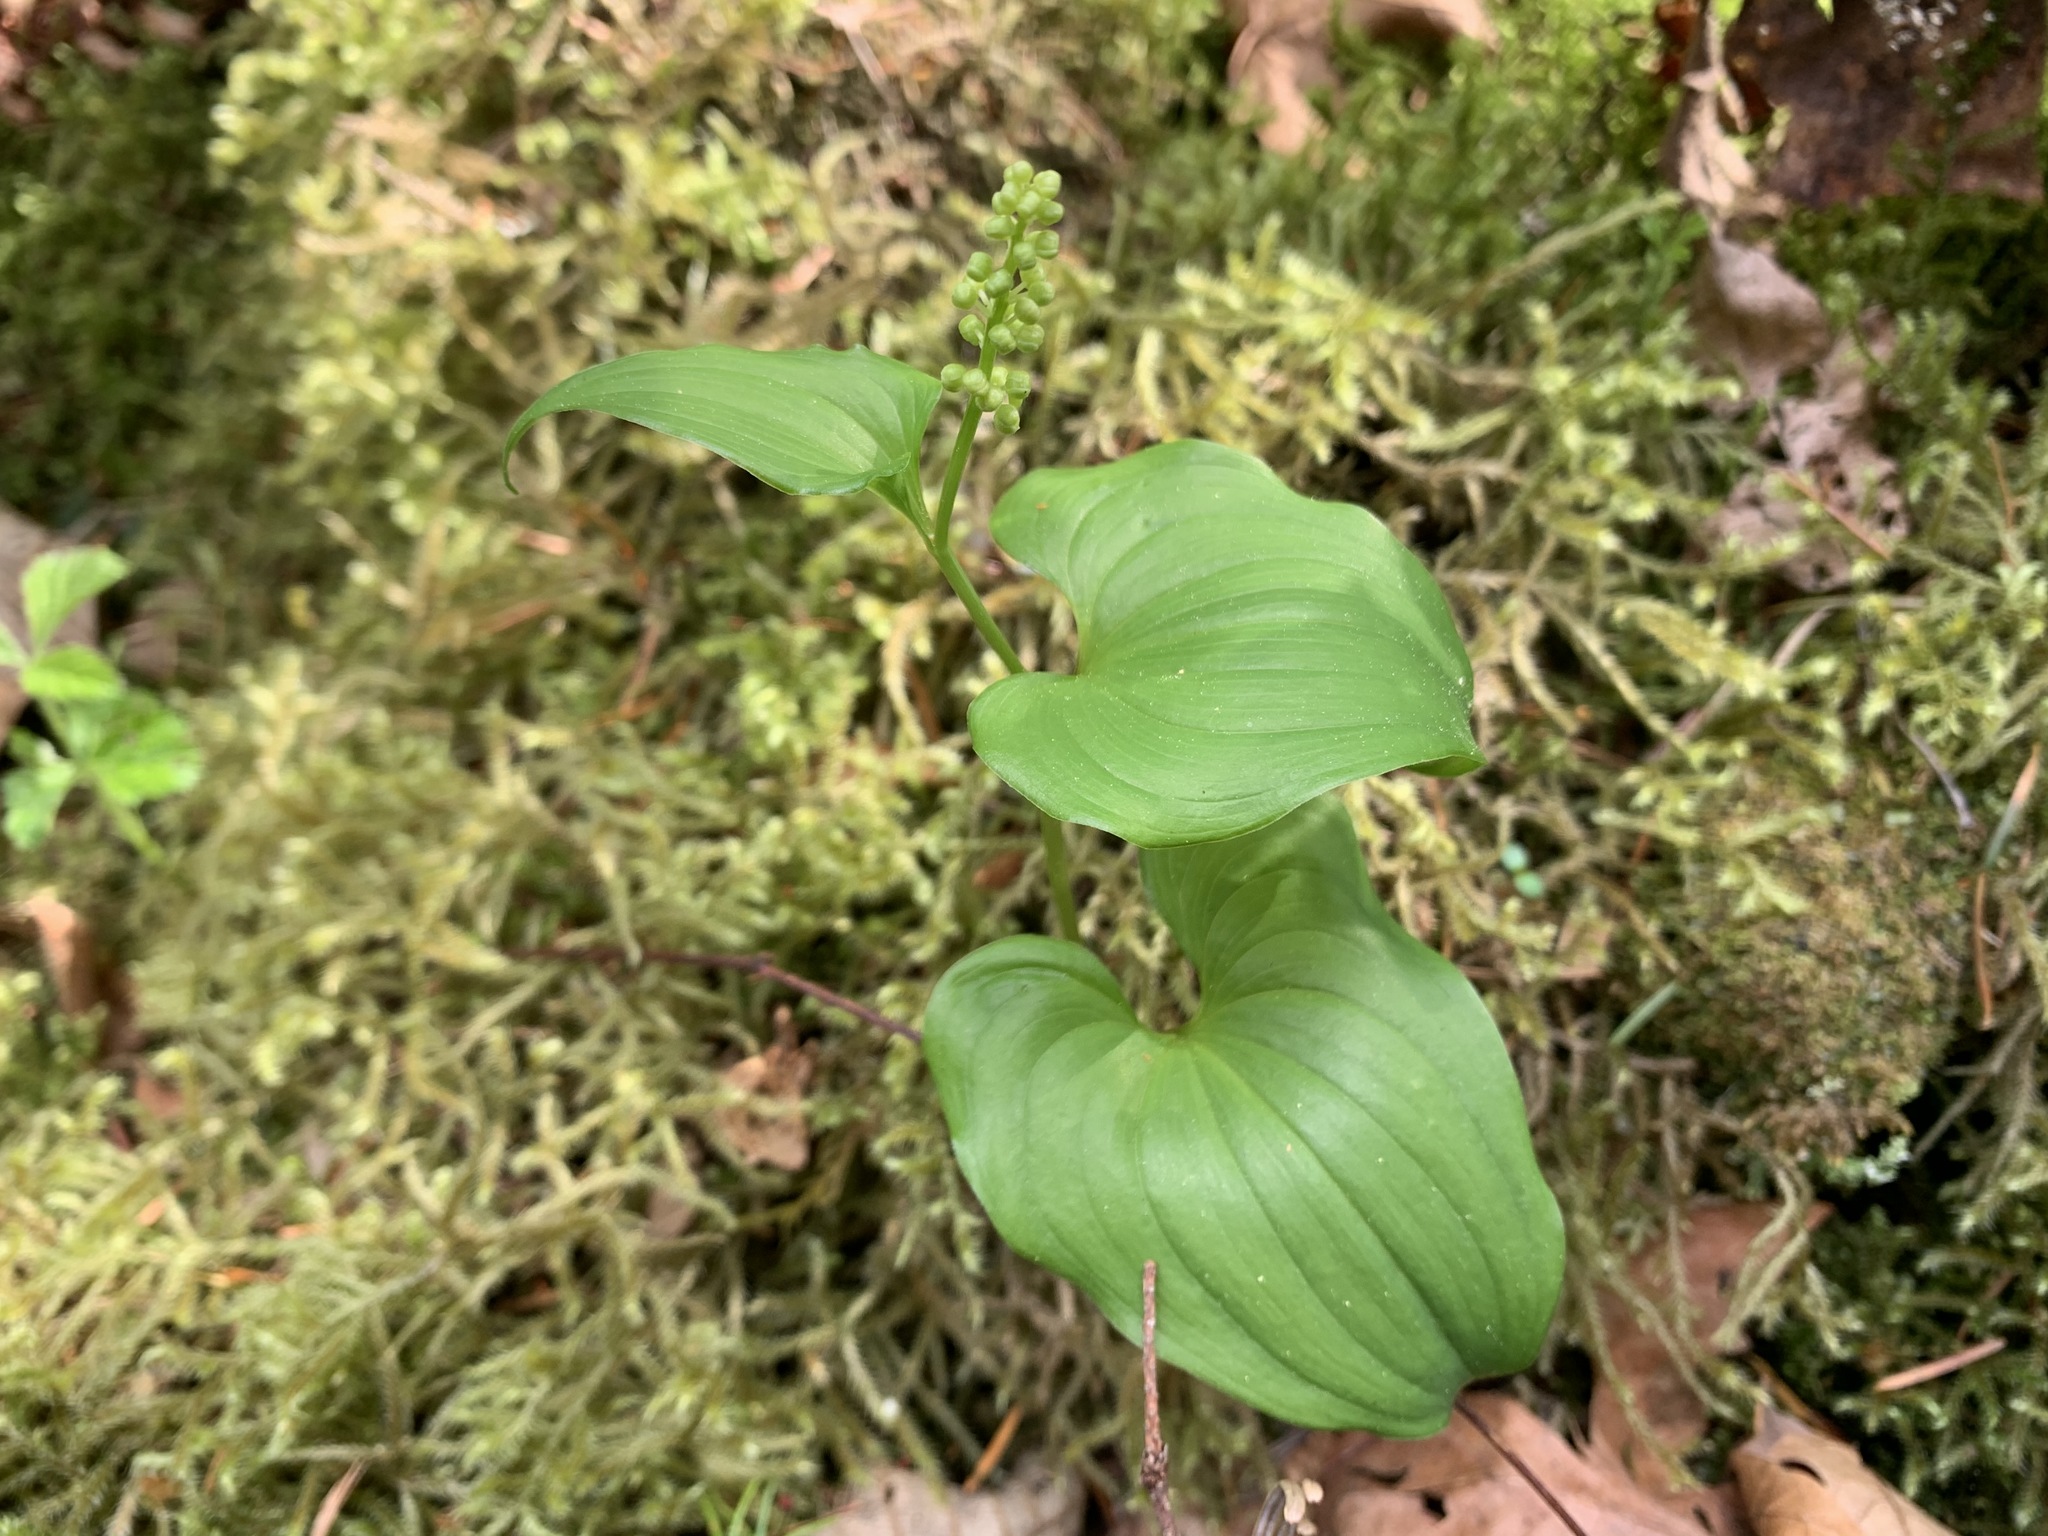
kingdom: Plantae
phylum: Tracheophyta
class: Liliopsida
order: Asparagales
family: Asparagaceae
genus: Maianthemum
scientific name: Maianthemum dilatatum
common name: False lily-of-the-valley
